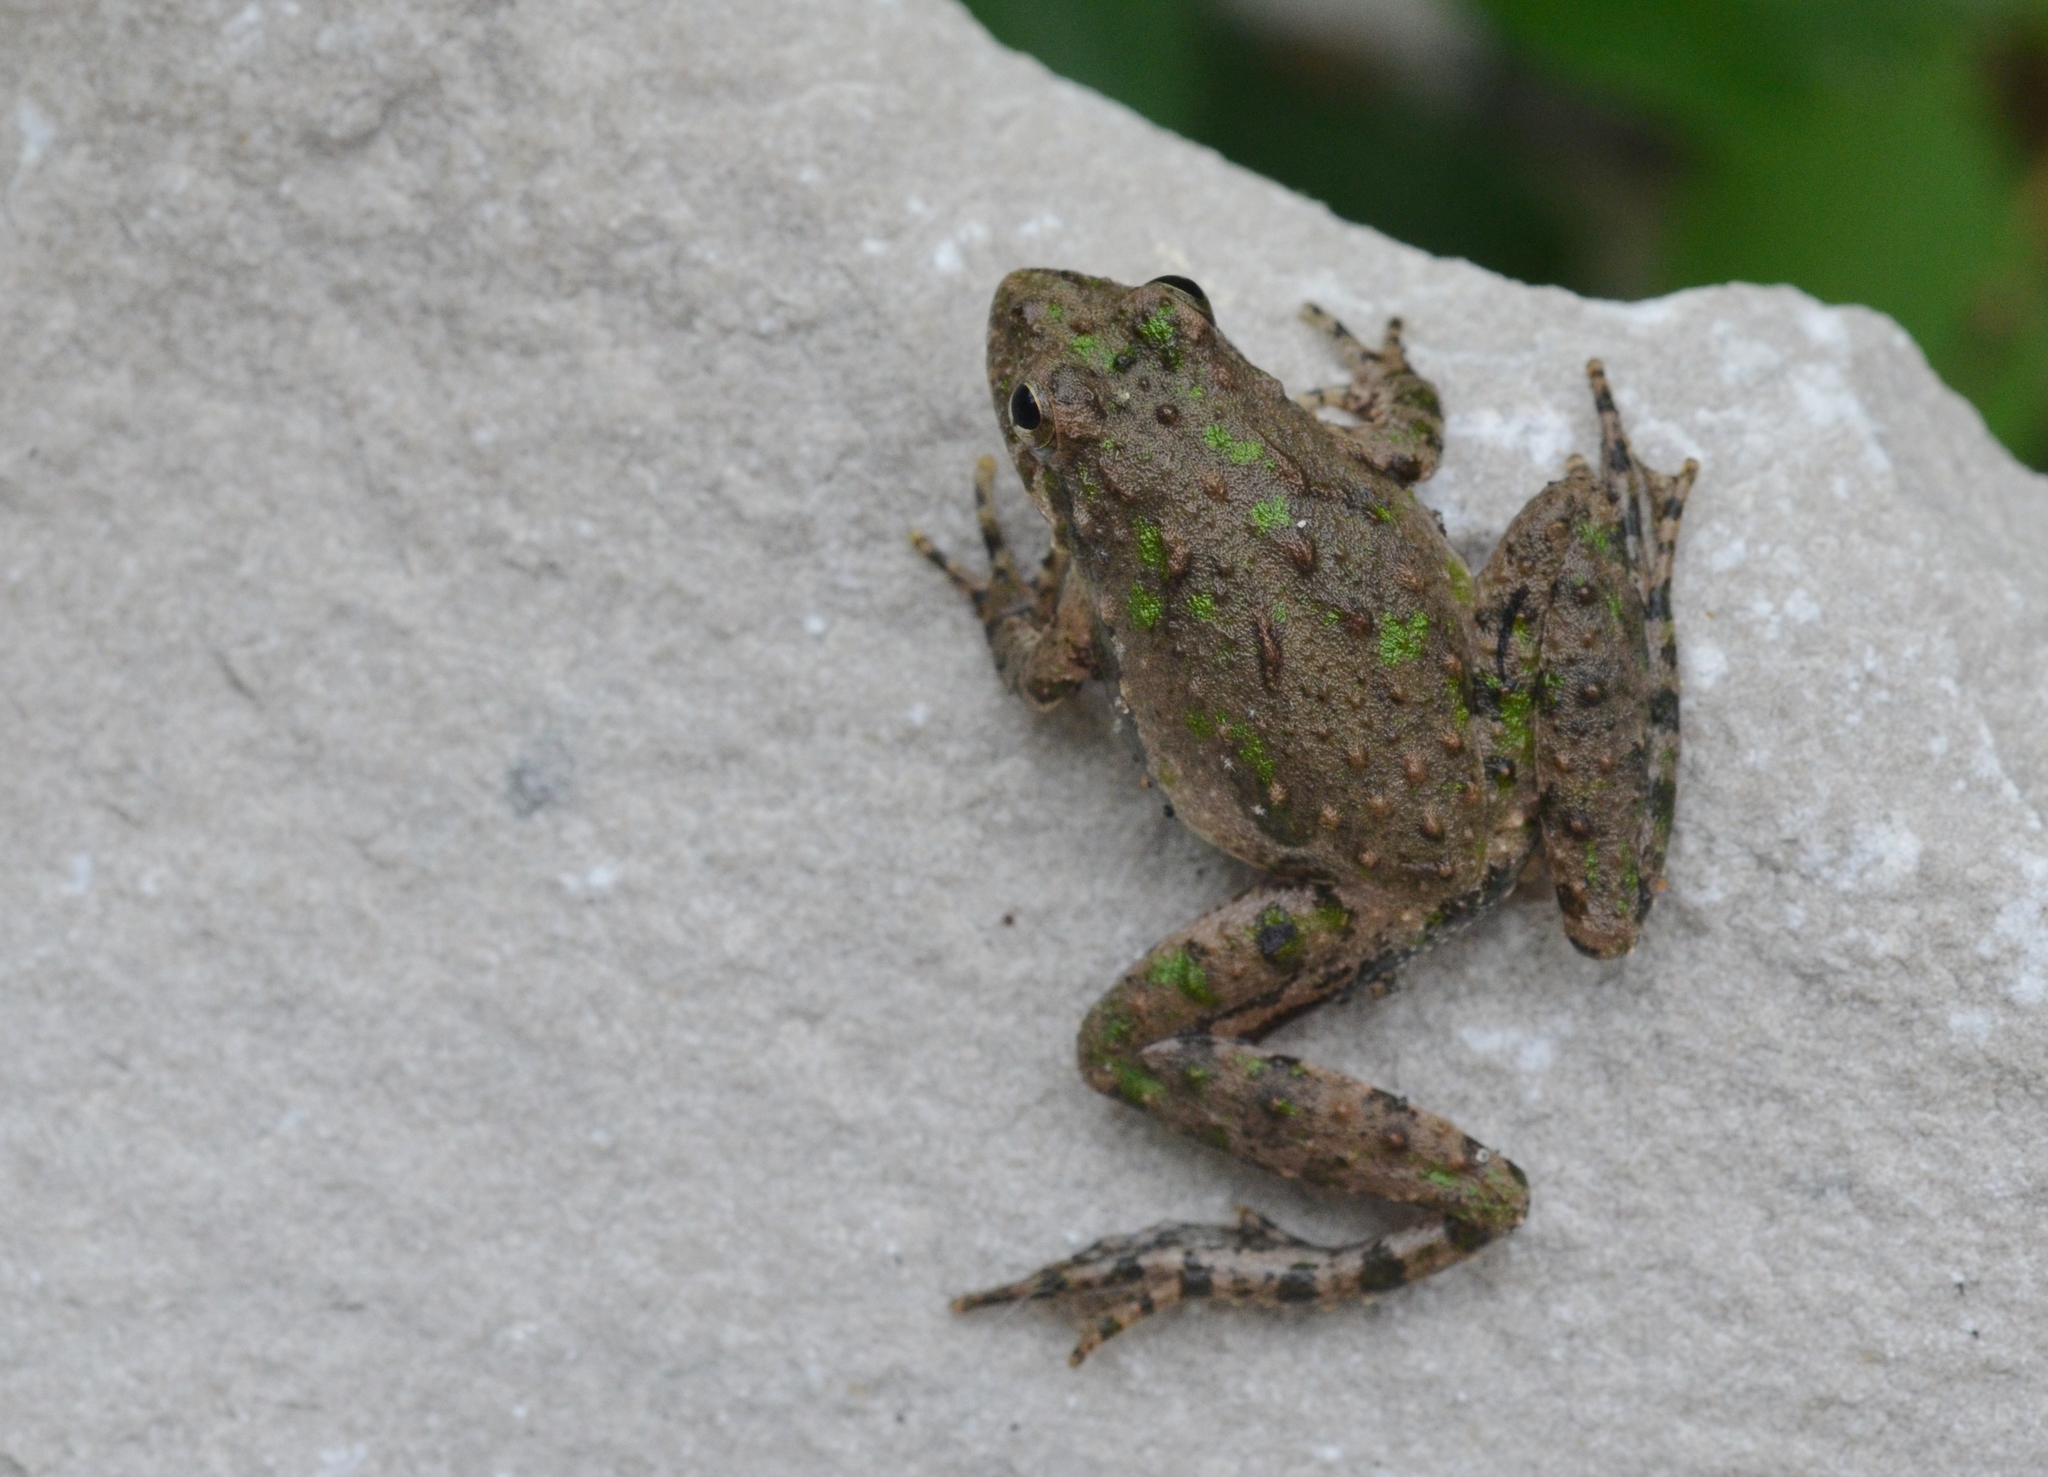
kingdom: Animalia
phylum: Chordata
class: Amphibia
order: Anura
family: Hylidae
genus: Acris
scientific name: Acris blanchardi
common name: Blanchard's cricket frog
